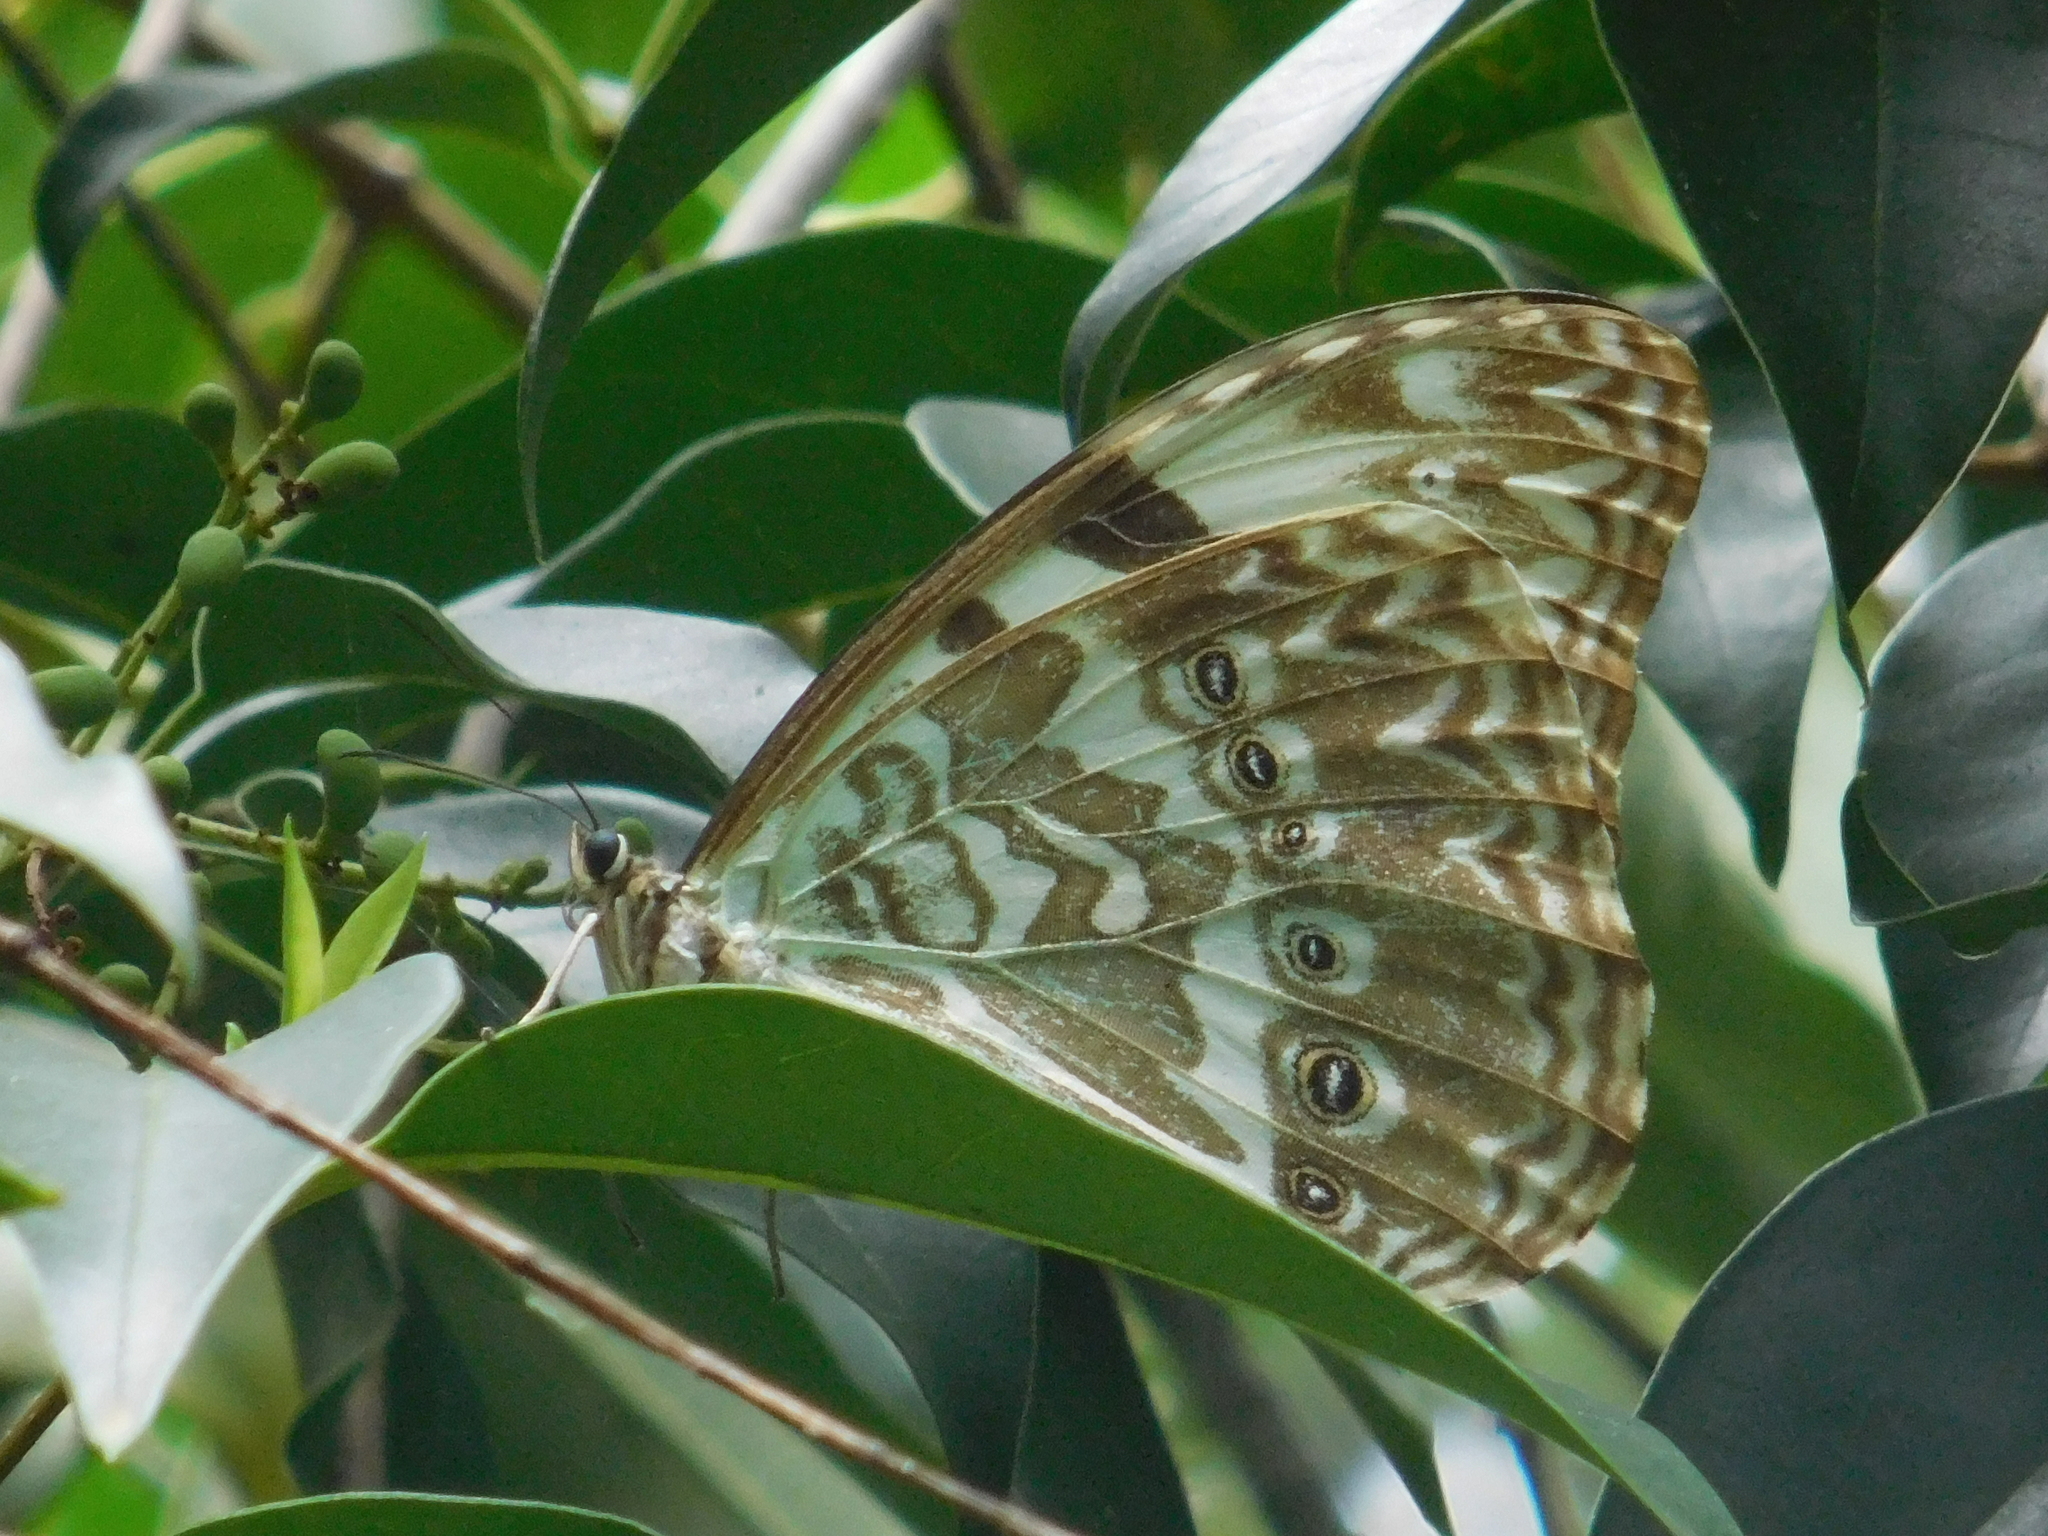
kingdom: Animalia
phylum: Arthropoda
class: Insecta
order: Lepidoptera
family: Nymphalidae
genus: Morpho
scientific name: Morpho epistrophus
